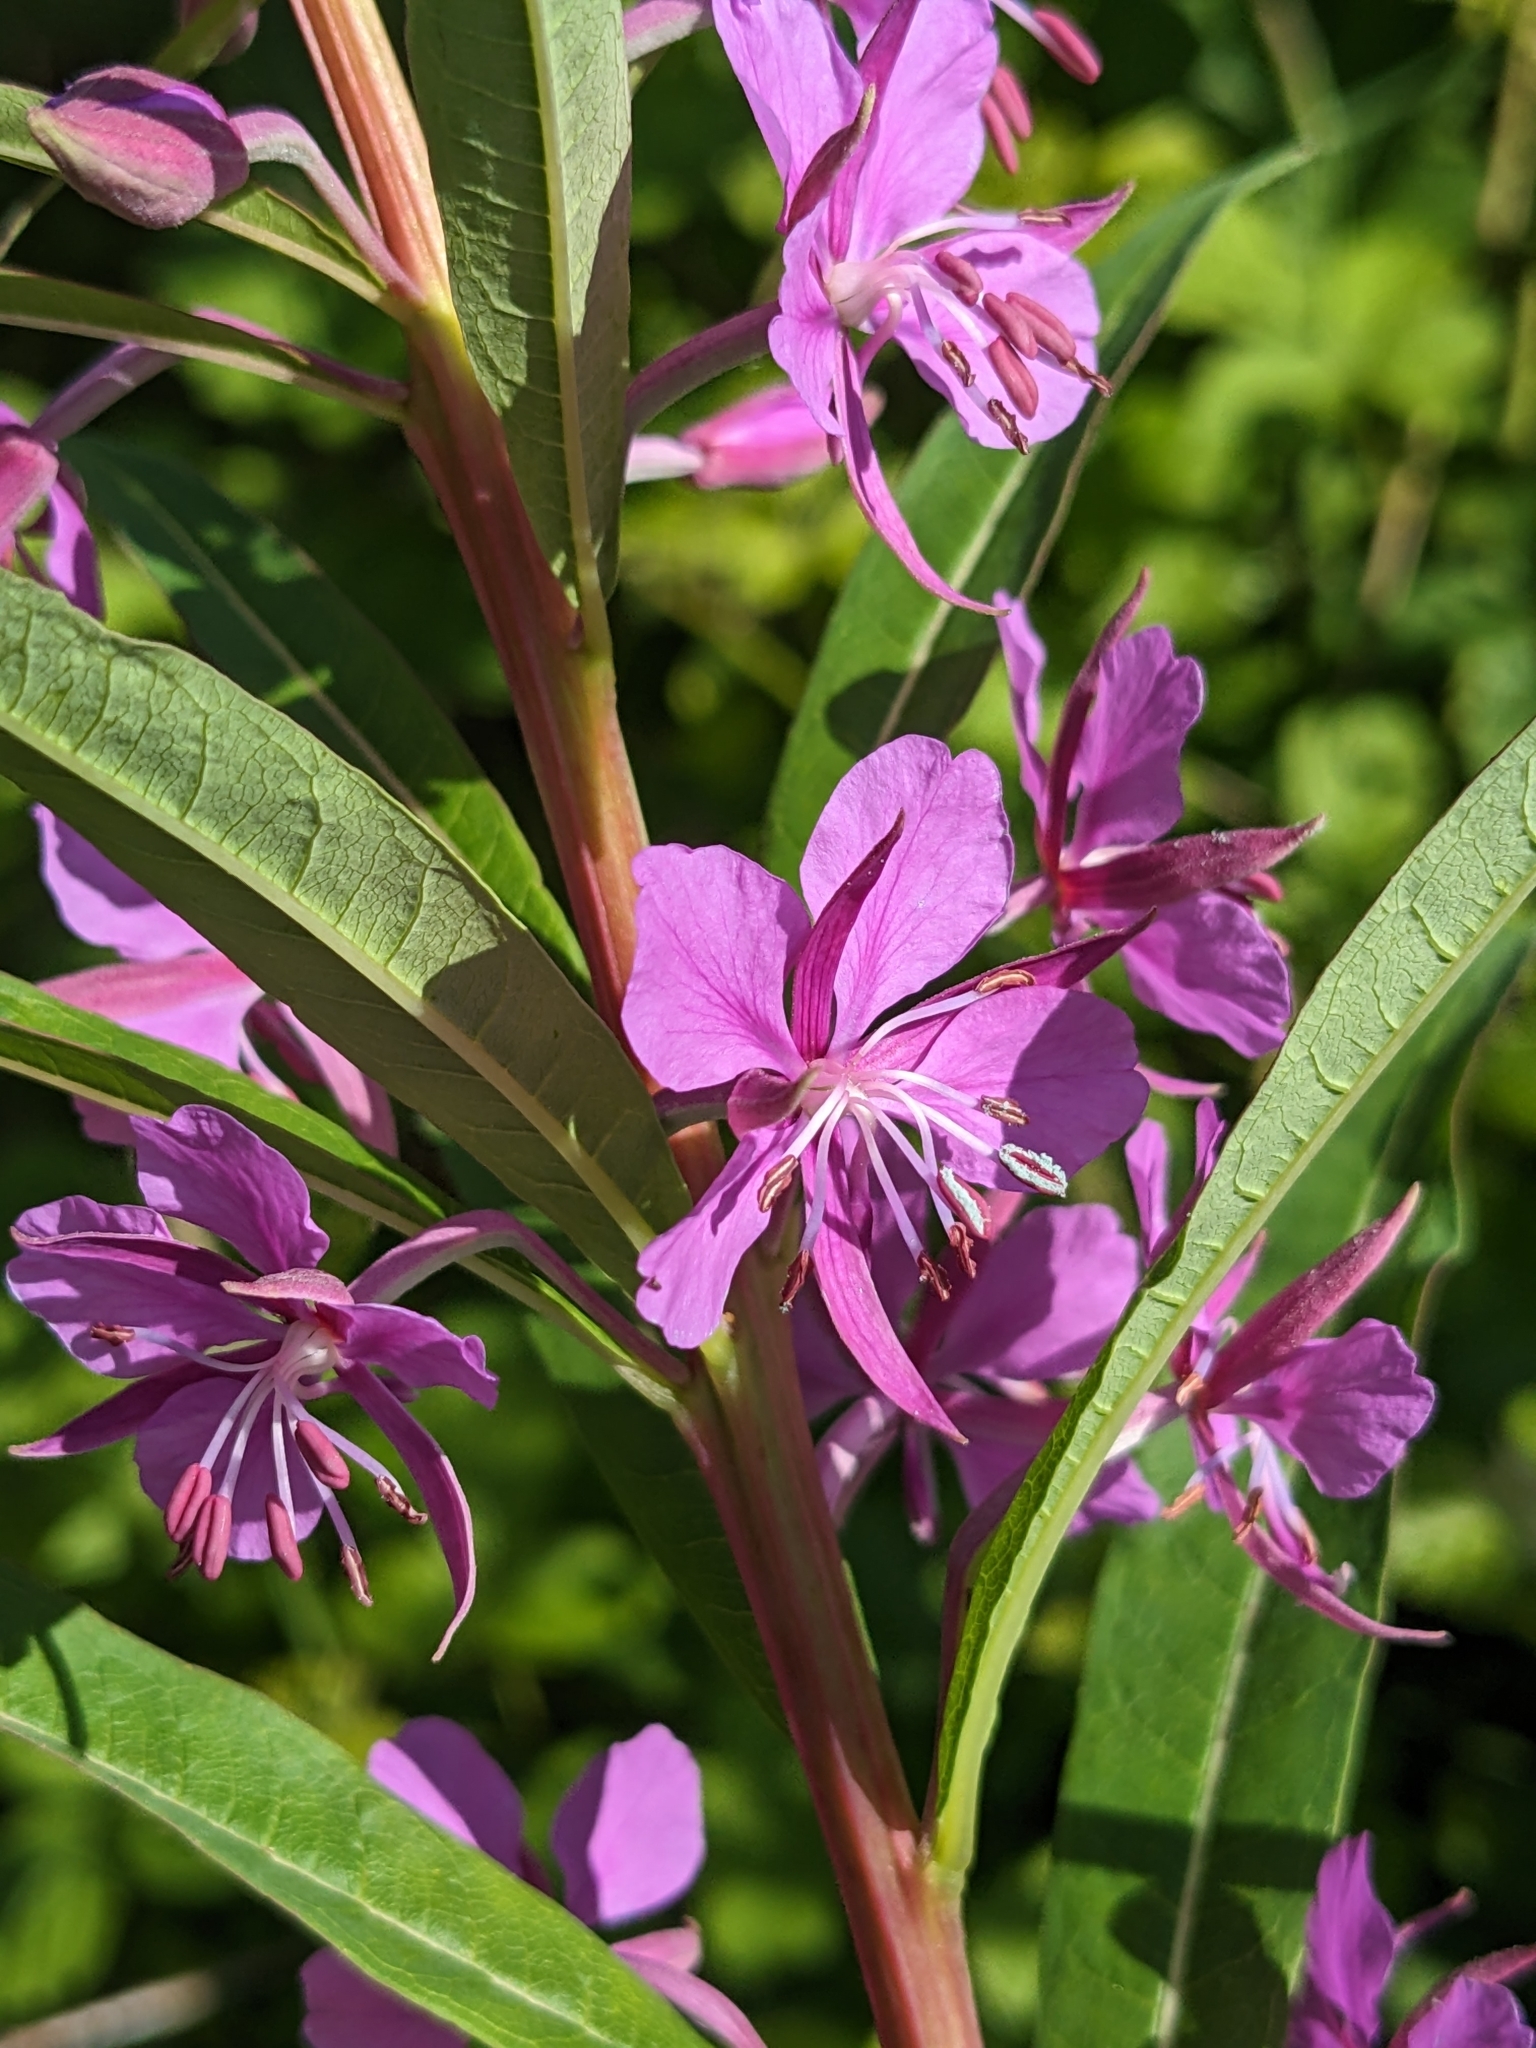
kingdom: Plantae
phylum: Tracheophyta
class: Magnoliopsida
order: Myrtales
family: Onagraceae
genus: Chamaenerion
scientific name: Chamaenerion angustifolium
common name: Fireweed
